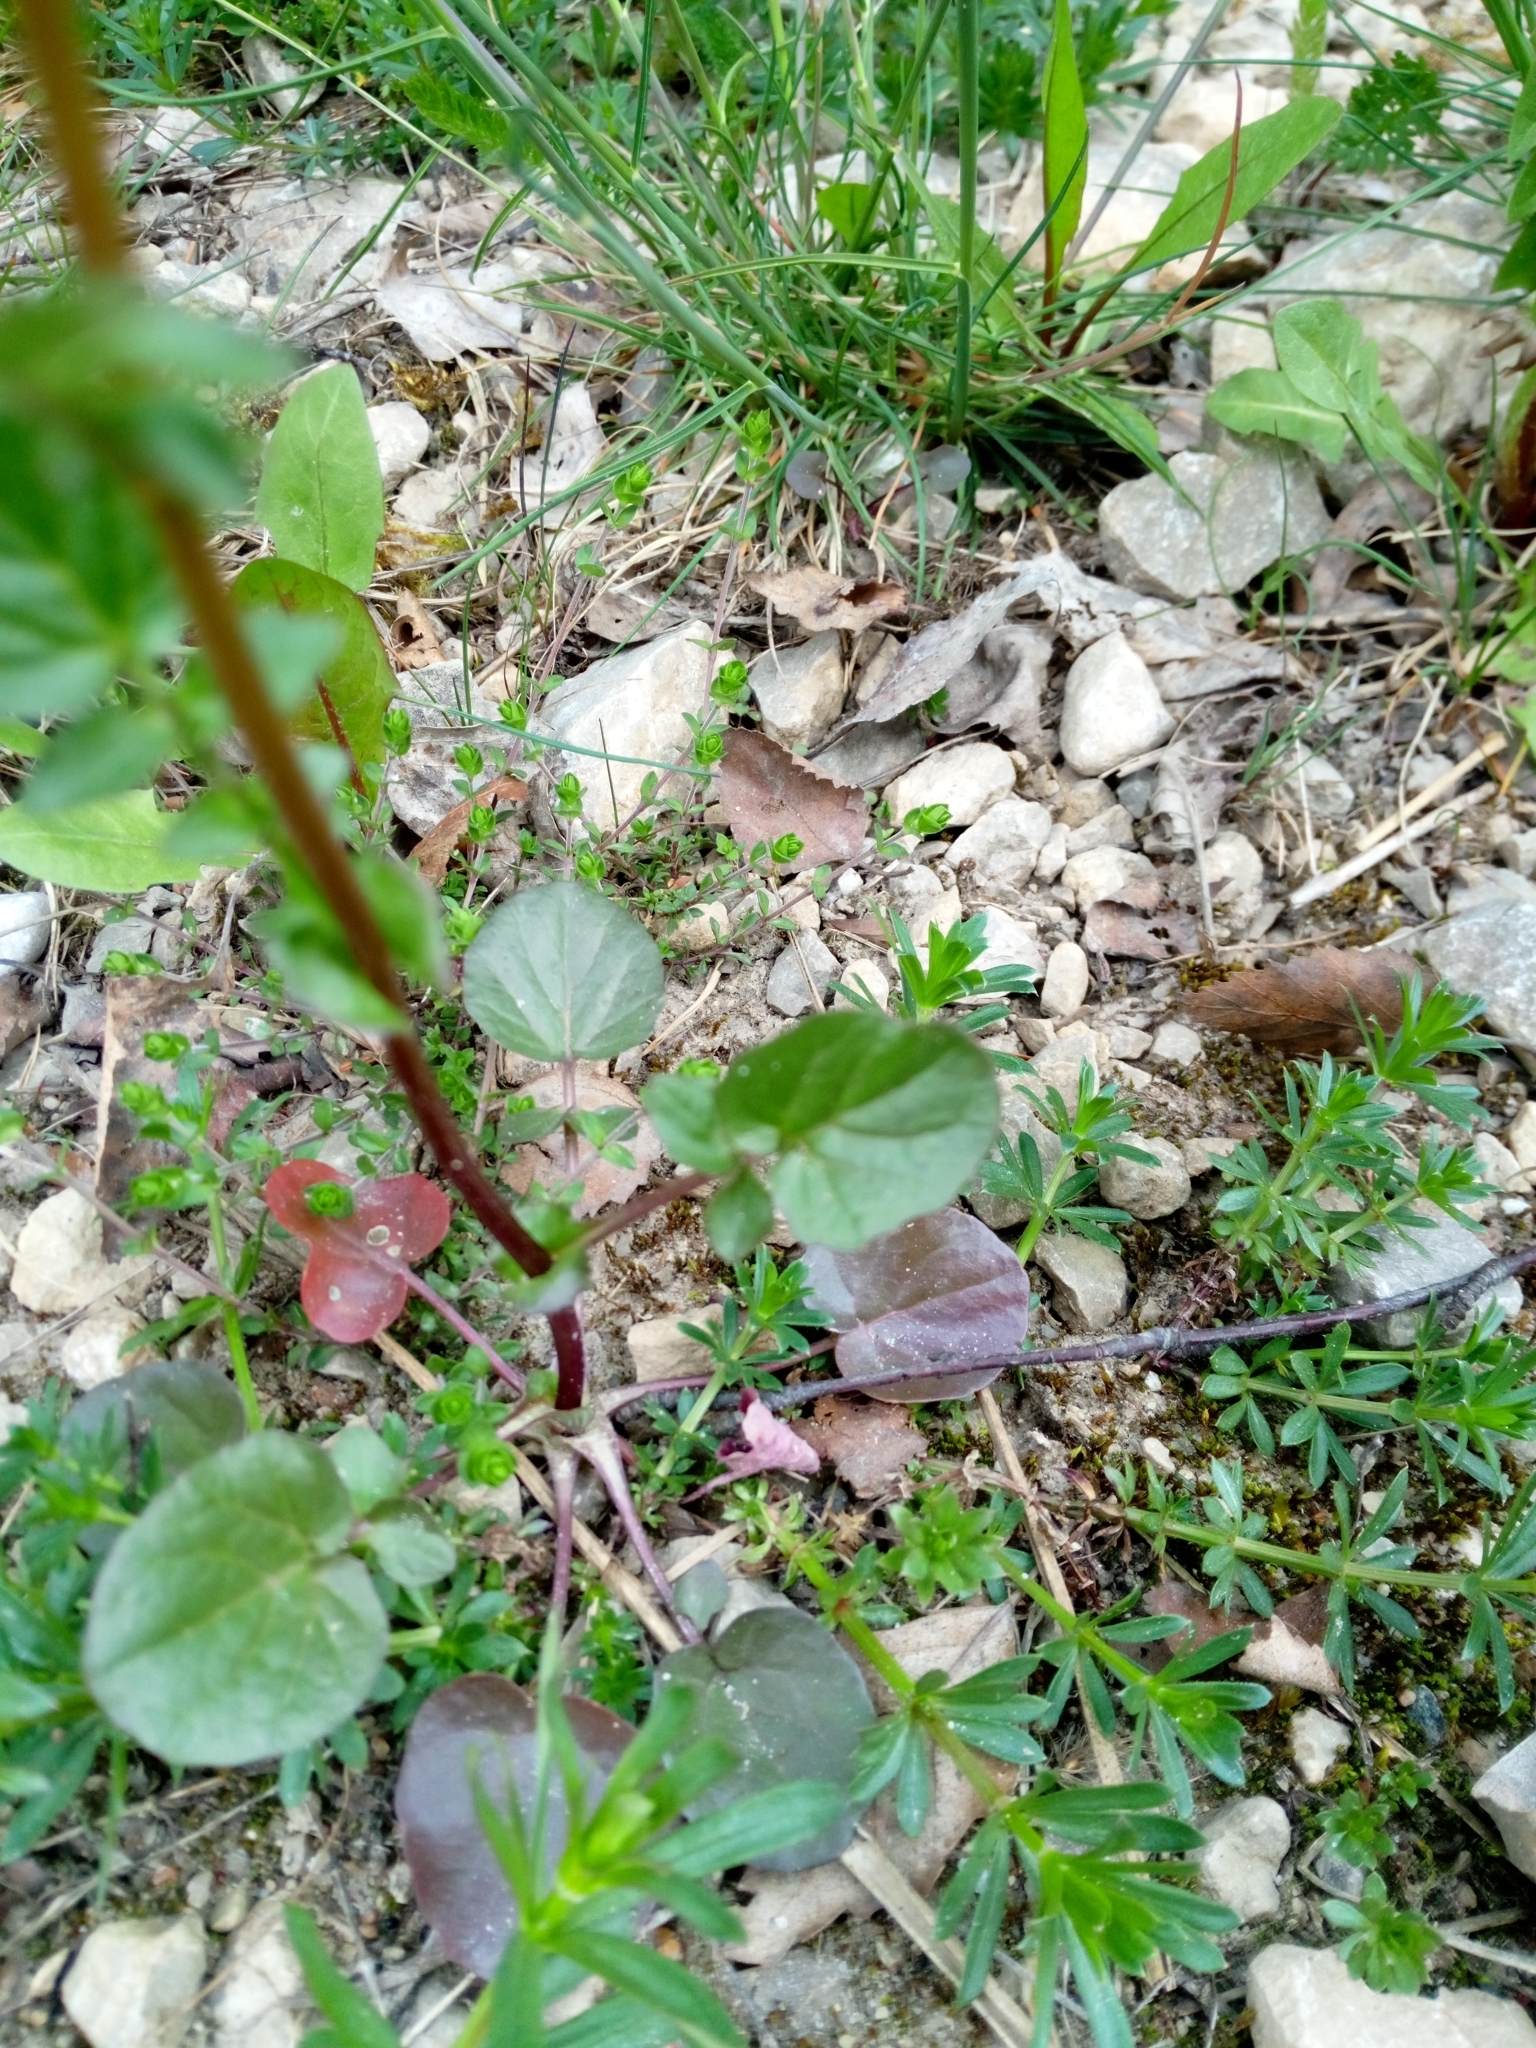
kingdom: Plantae
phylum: Tracheophyta
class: Magnoliopsida
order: Brassicales
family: Brassicaceae
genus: Barbarea
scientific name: Barbarea vulgaris
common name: Cressy-greens
